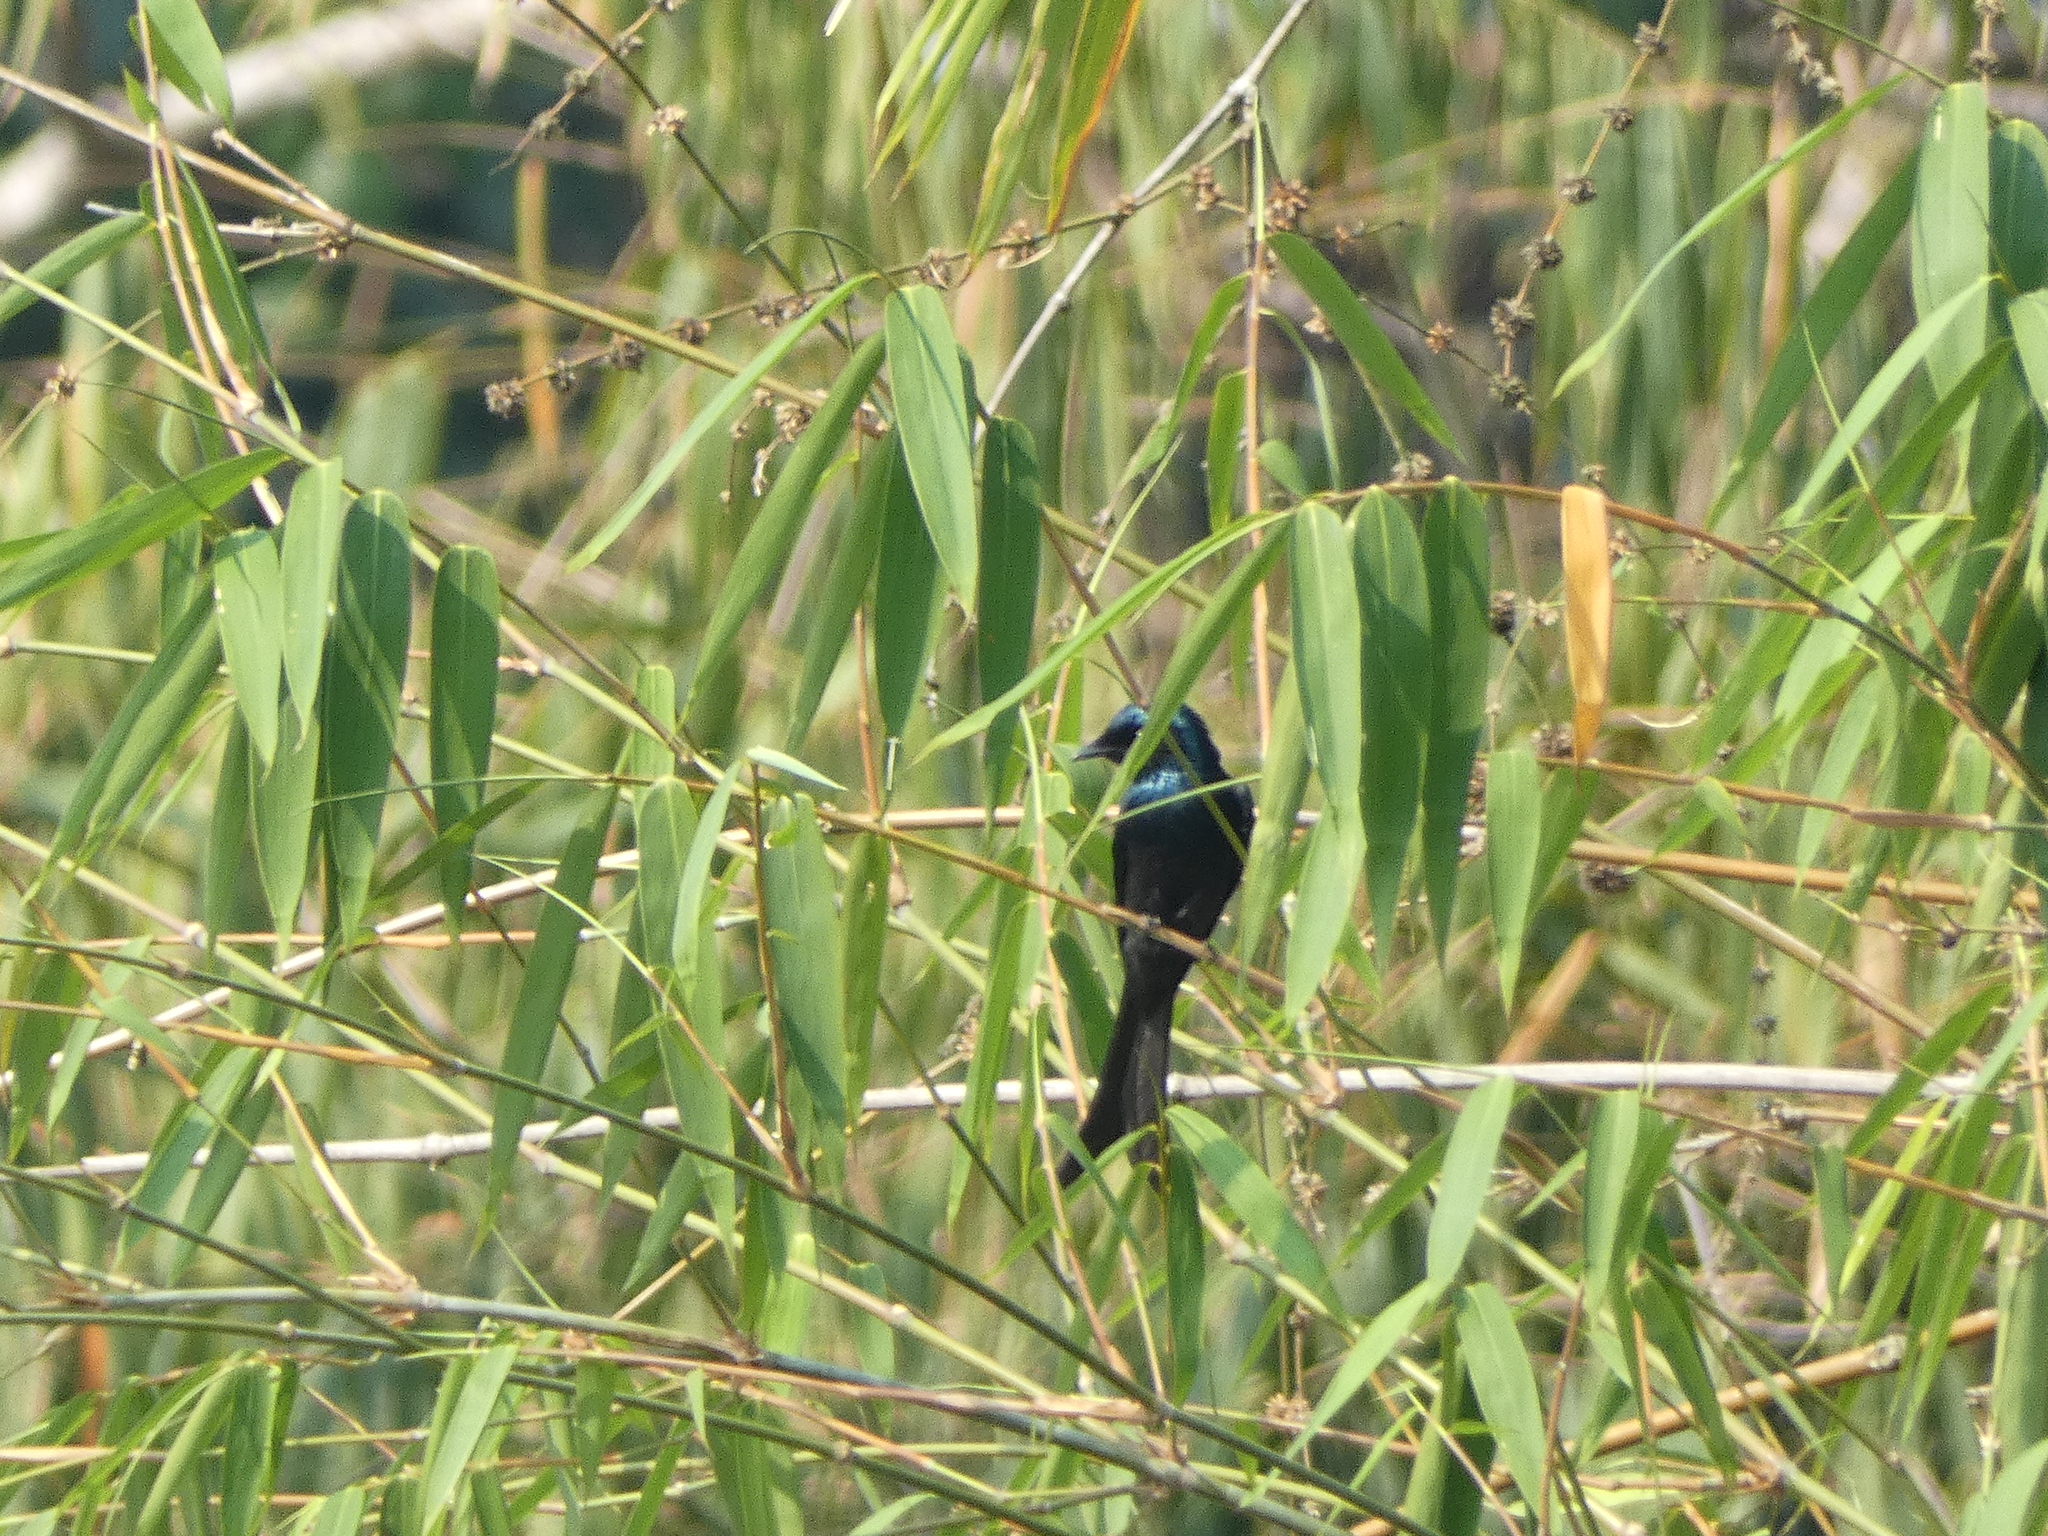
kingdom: Animalia
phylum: Chordata
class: Aves
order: Passeriformes
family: Dicruridae
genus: Dicrurus
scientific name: Dicrurus aeneus
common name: Bronzed drongo
